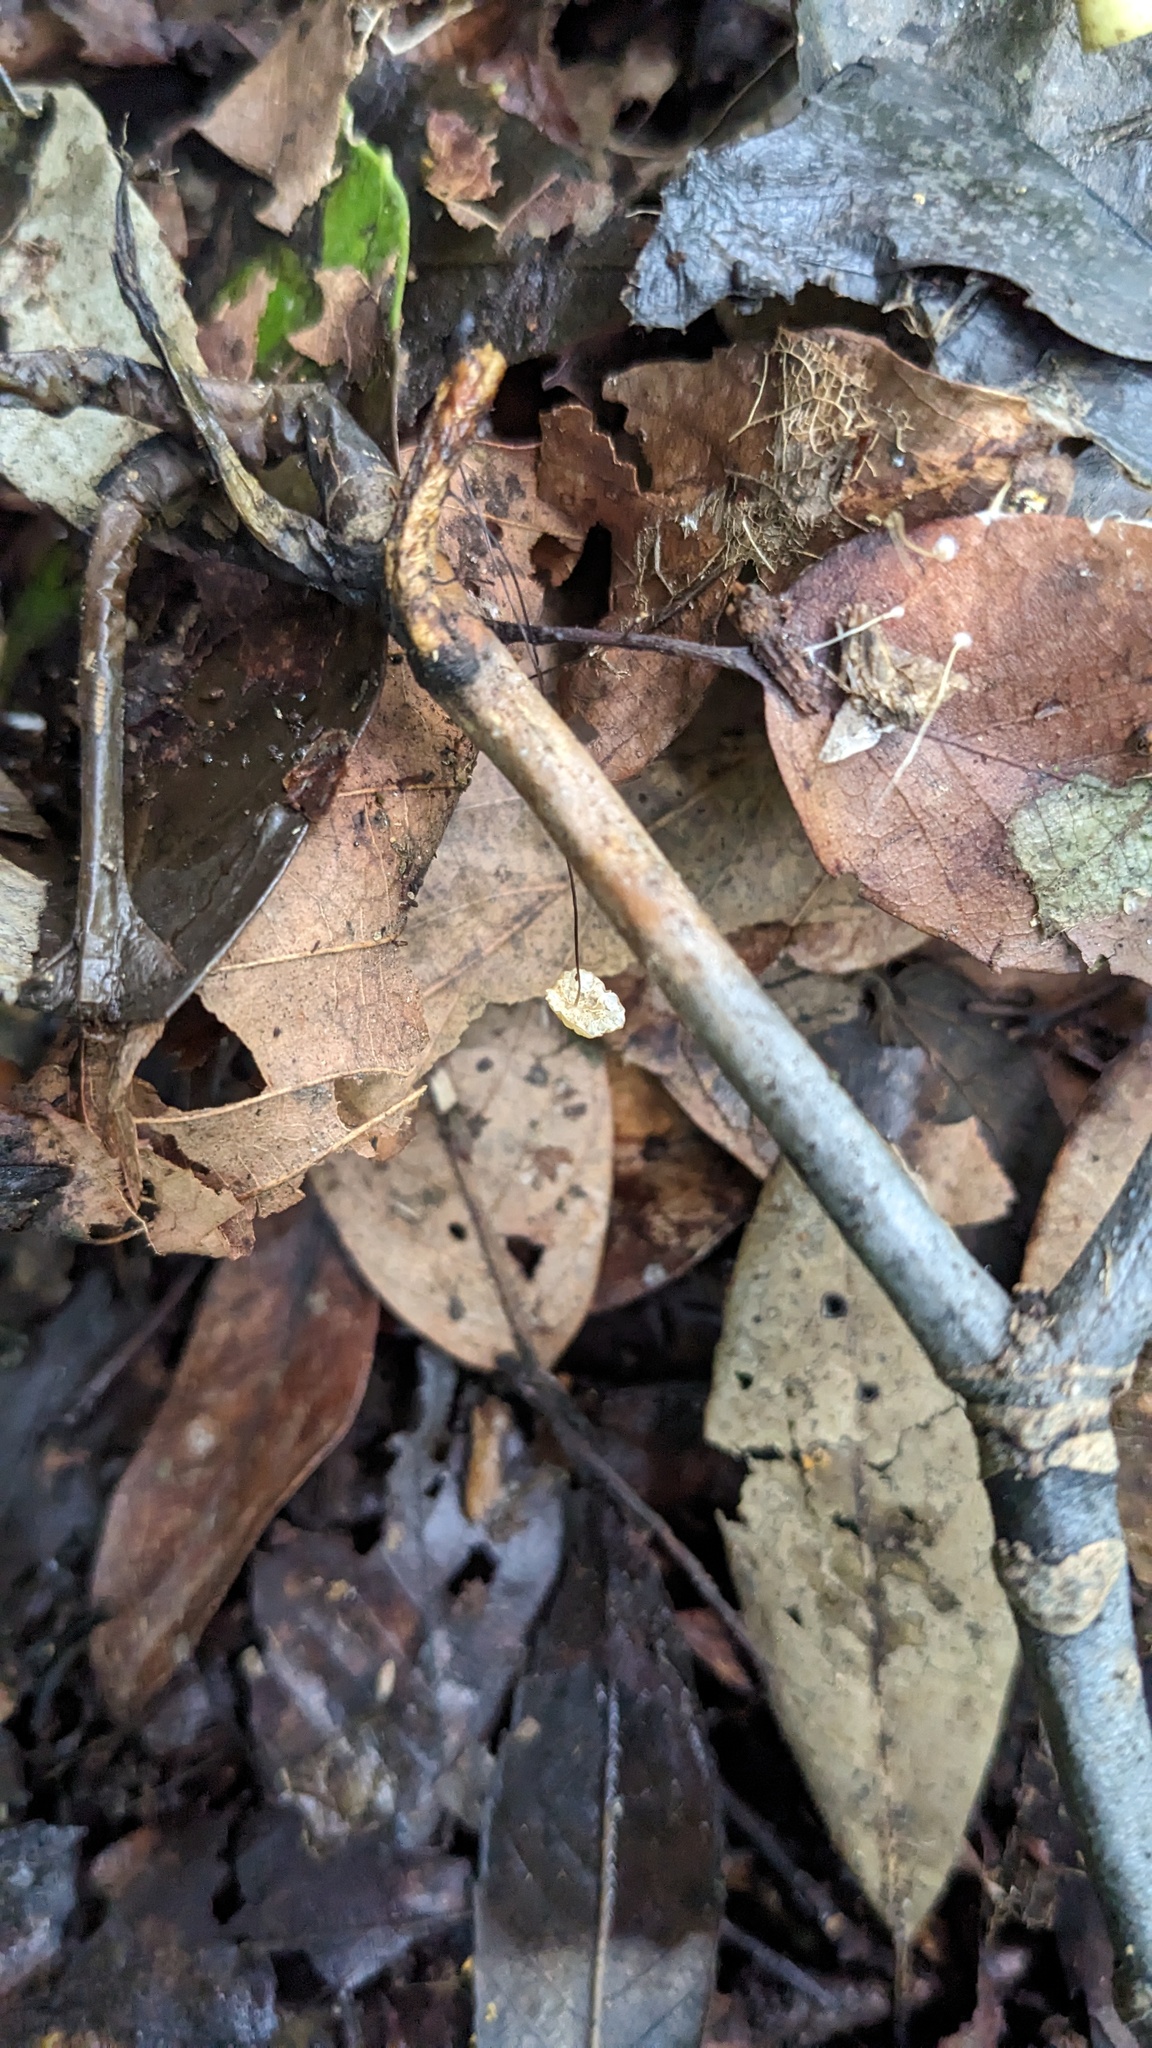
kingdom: Fungi
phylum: Basidiomycota
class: Agaricomycetes
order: Agaricales
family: Physalacriaceae
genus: Cryptomarasmius
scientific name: Cryptomarasmius aucubae
